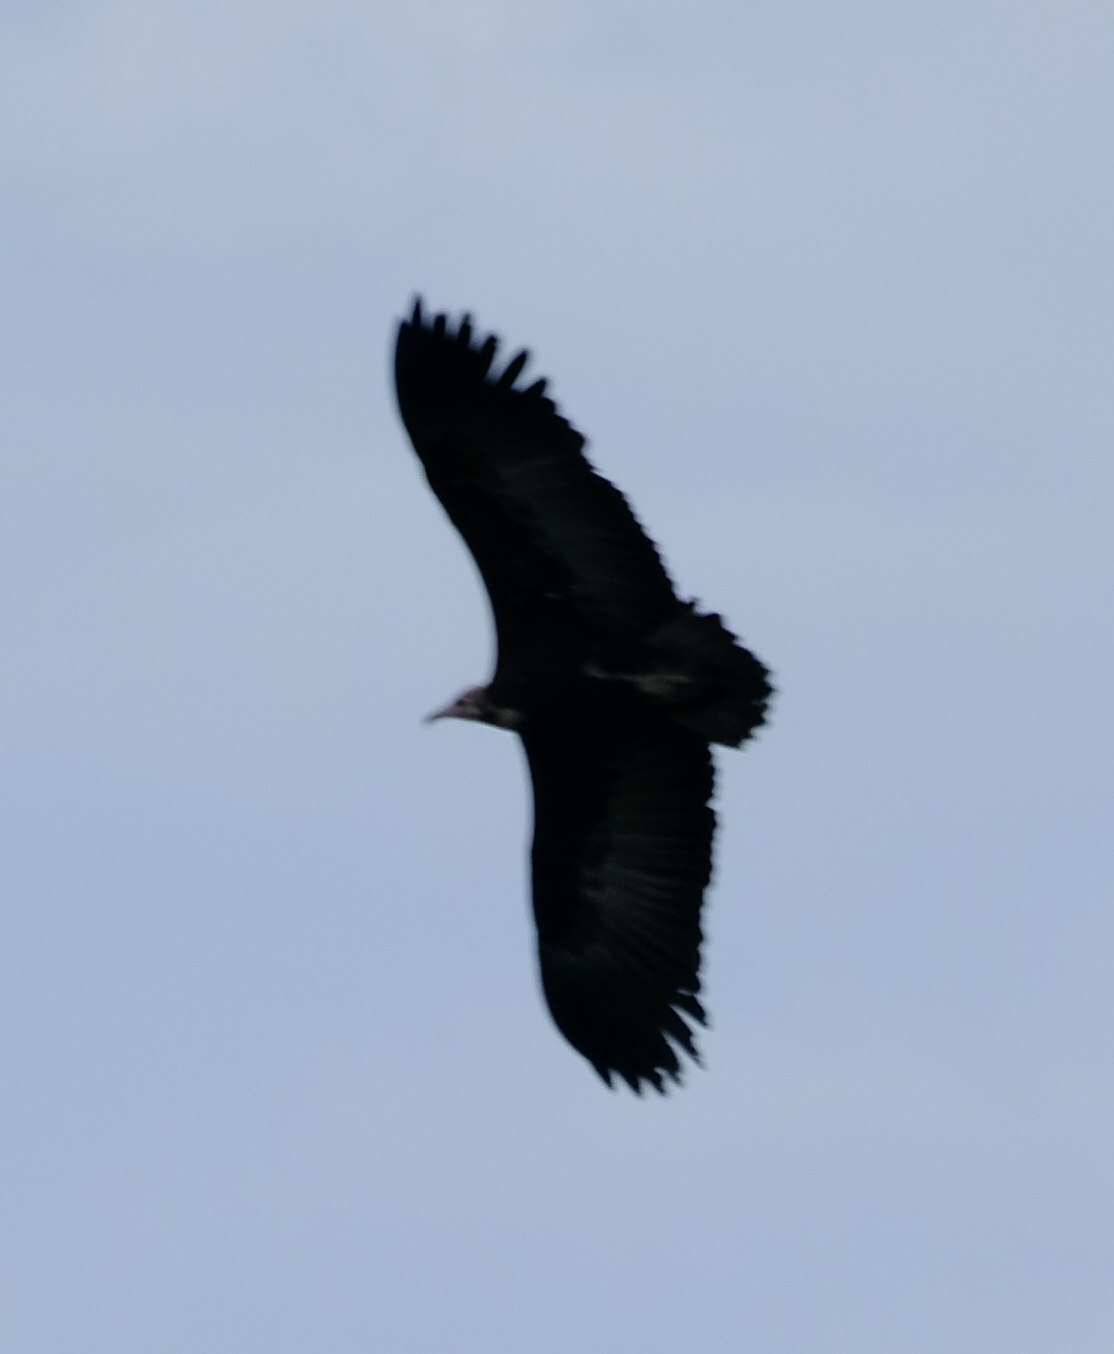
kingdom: Animalia
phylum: Chordata
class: Aves
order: Accipitriformes
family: Accipitridae
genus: Necrosyrtes
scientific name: Necrosyrtes monachus
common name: Hooded vulture
